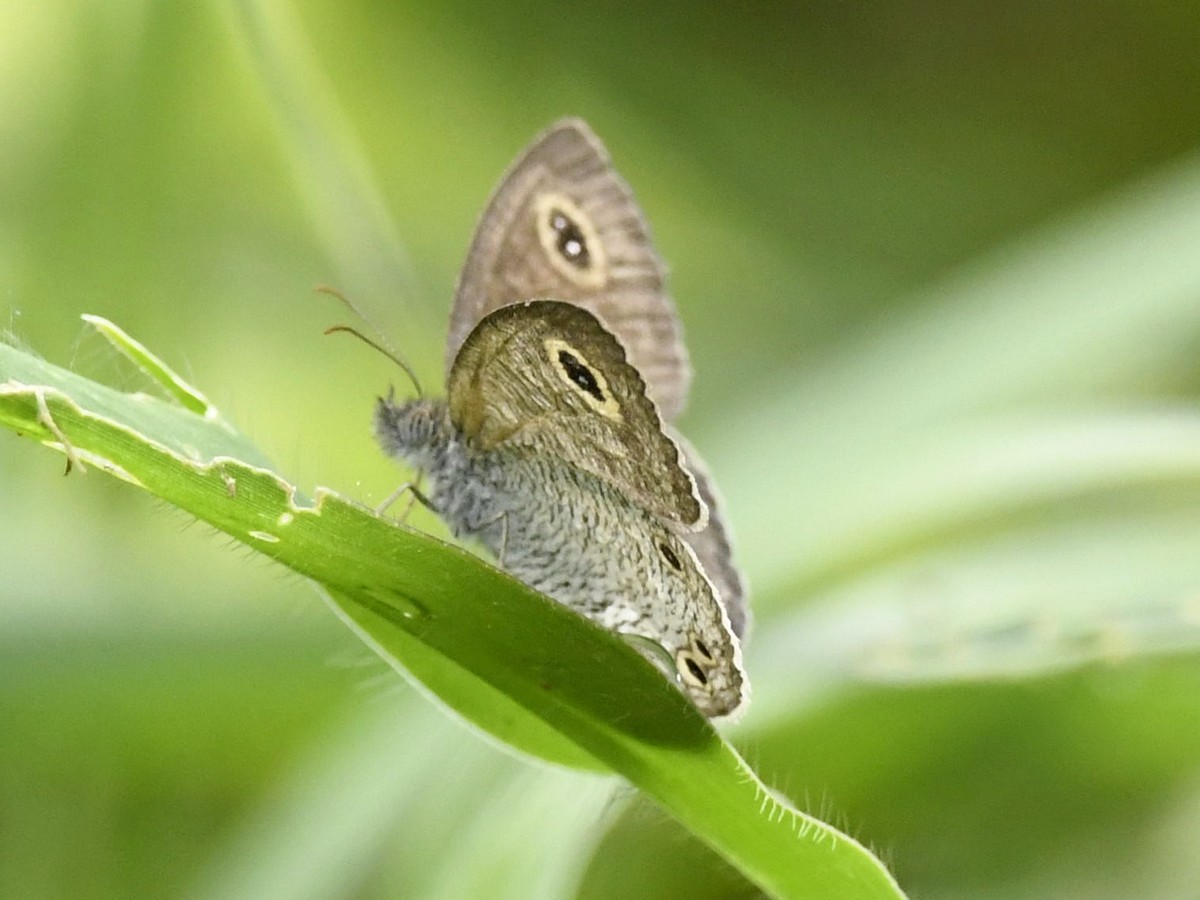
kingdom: Animalia
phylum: Arthropoda
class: Insecta
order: Lepidoptera
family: Nymphalidae
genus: Ypthima
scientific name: Ypthima huebneri
